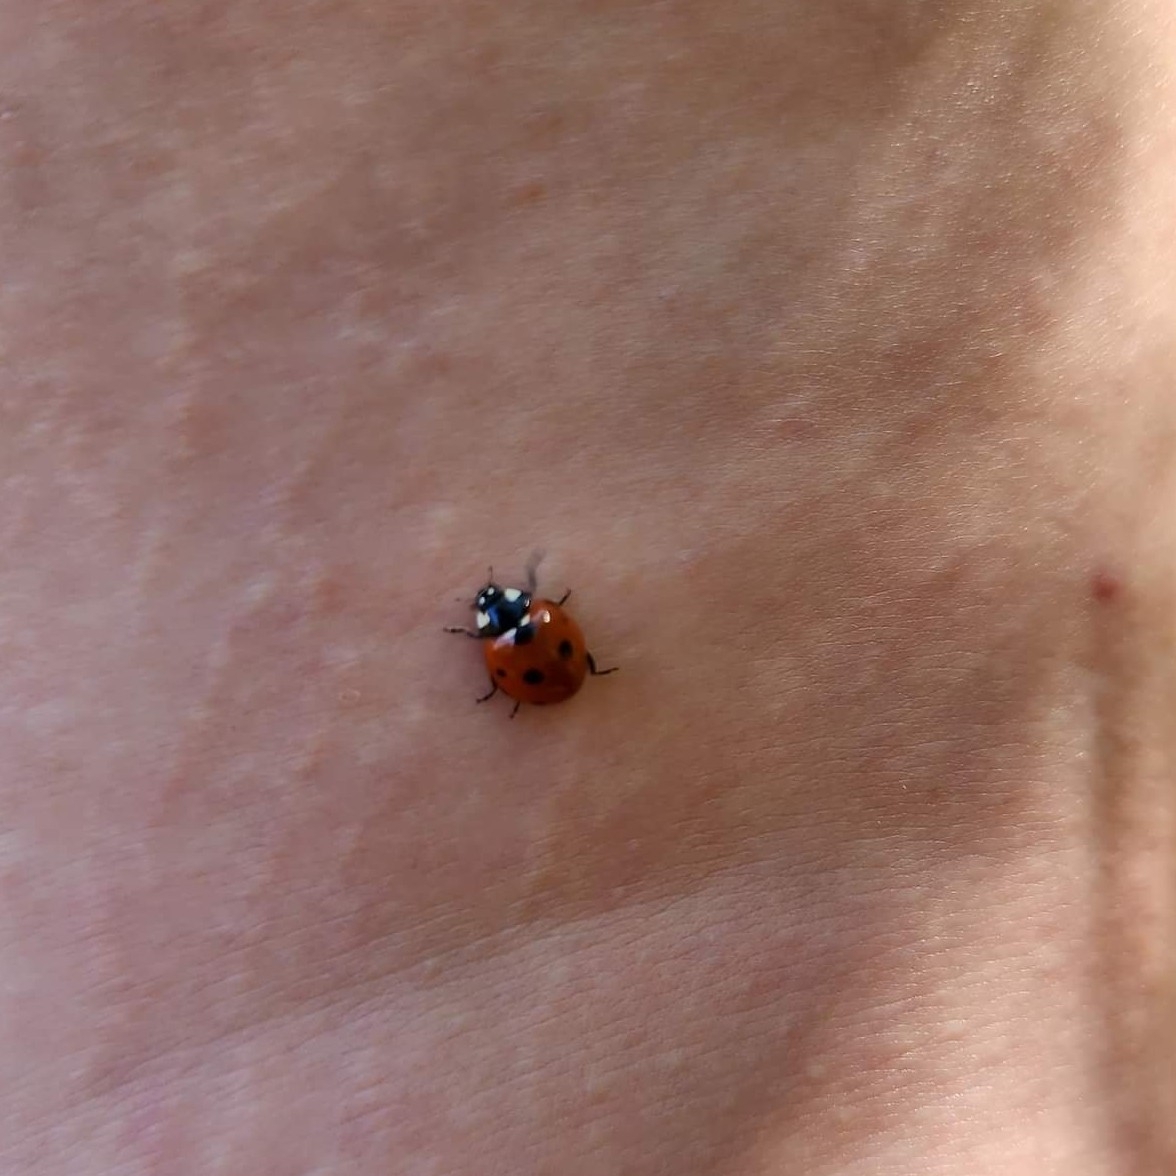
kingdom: Animalia
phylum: Arthropoda
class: Insecta
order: Coleoptera
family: Coccinellidae
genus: Coccinella
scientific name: Coccinella septempunctata
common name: Sevenspotted lady beetle
